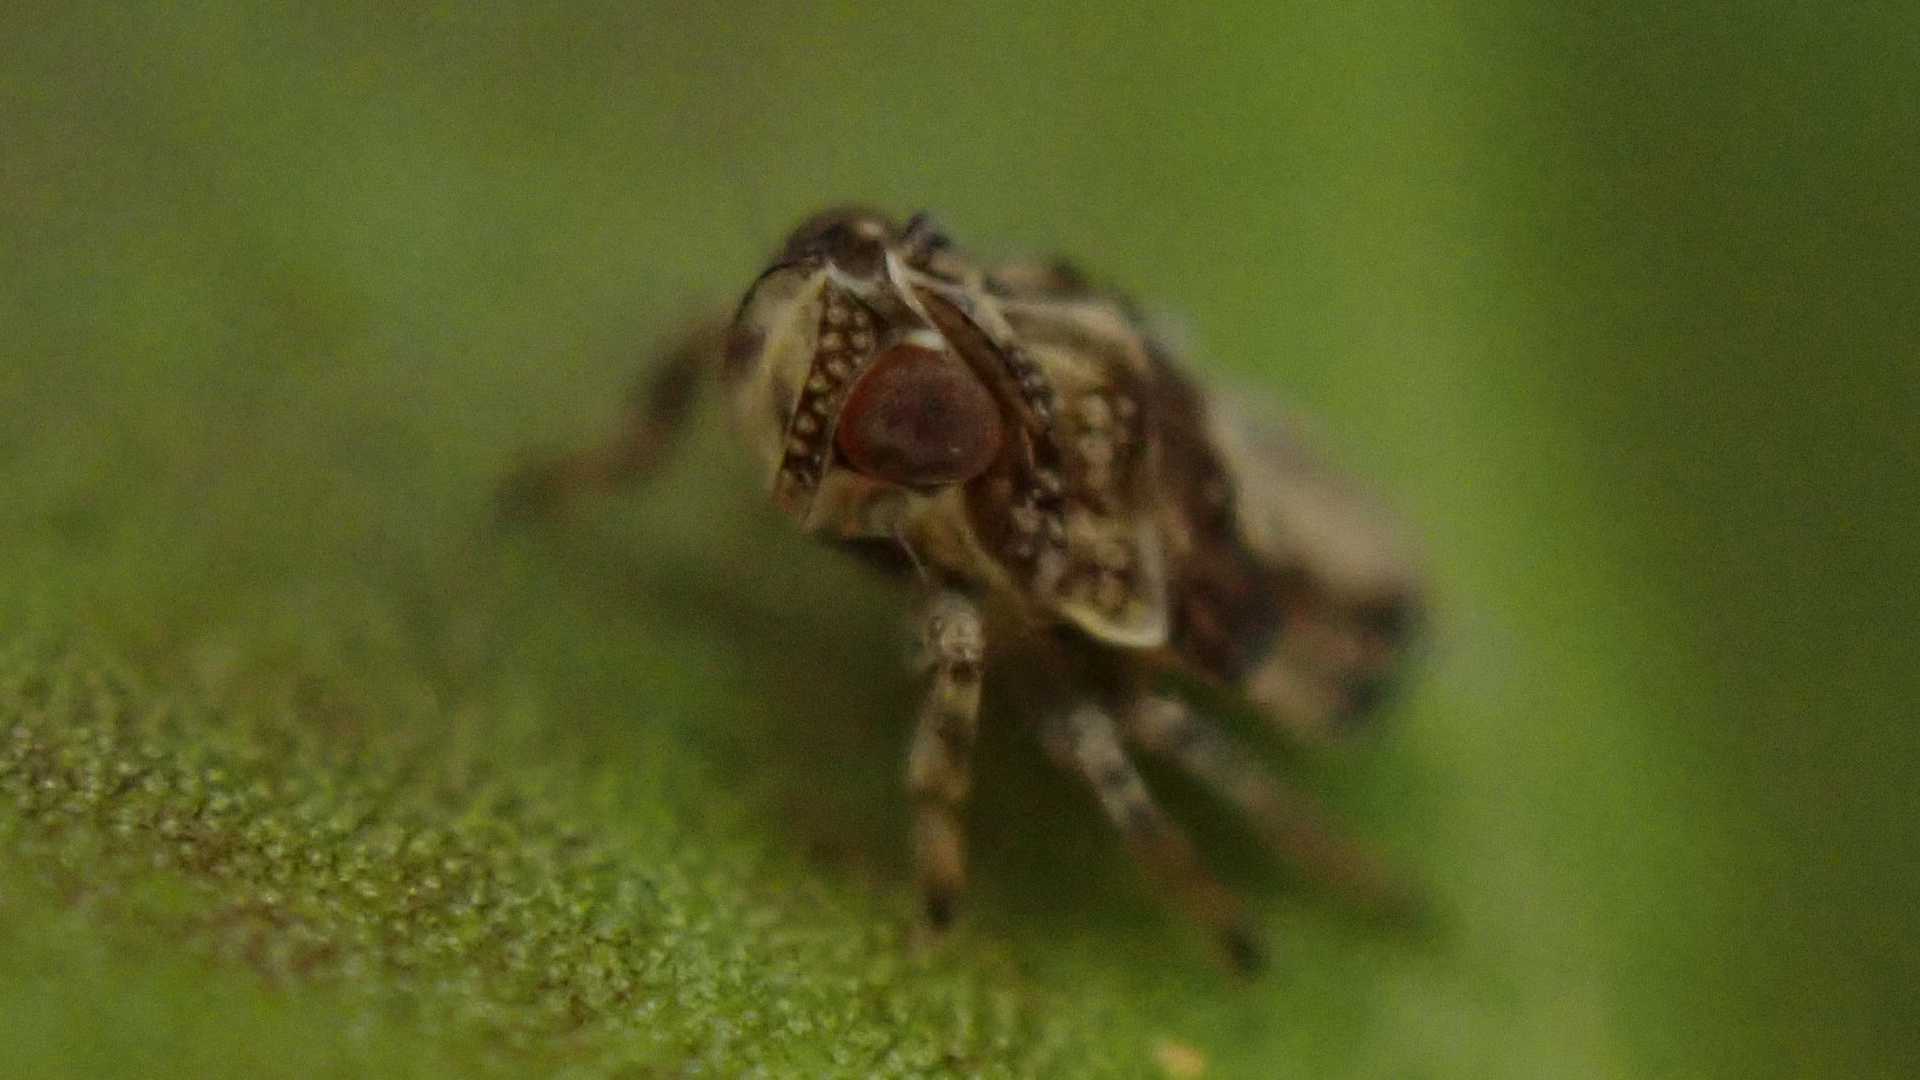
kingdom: Animalia
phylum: Arthropoda
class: Insecta
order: Hemiptera
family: Issidae
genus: Issus
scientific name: Issus coleoptratus
